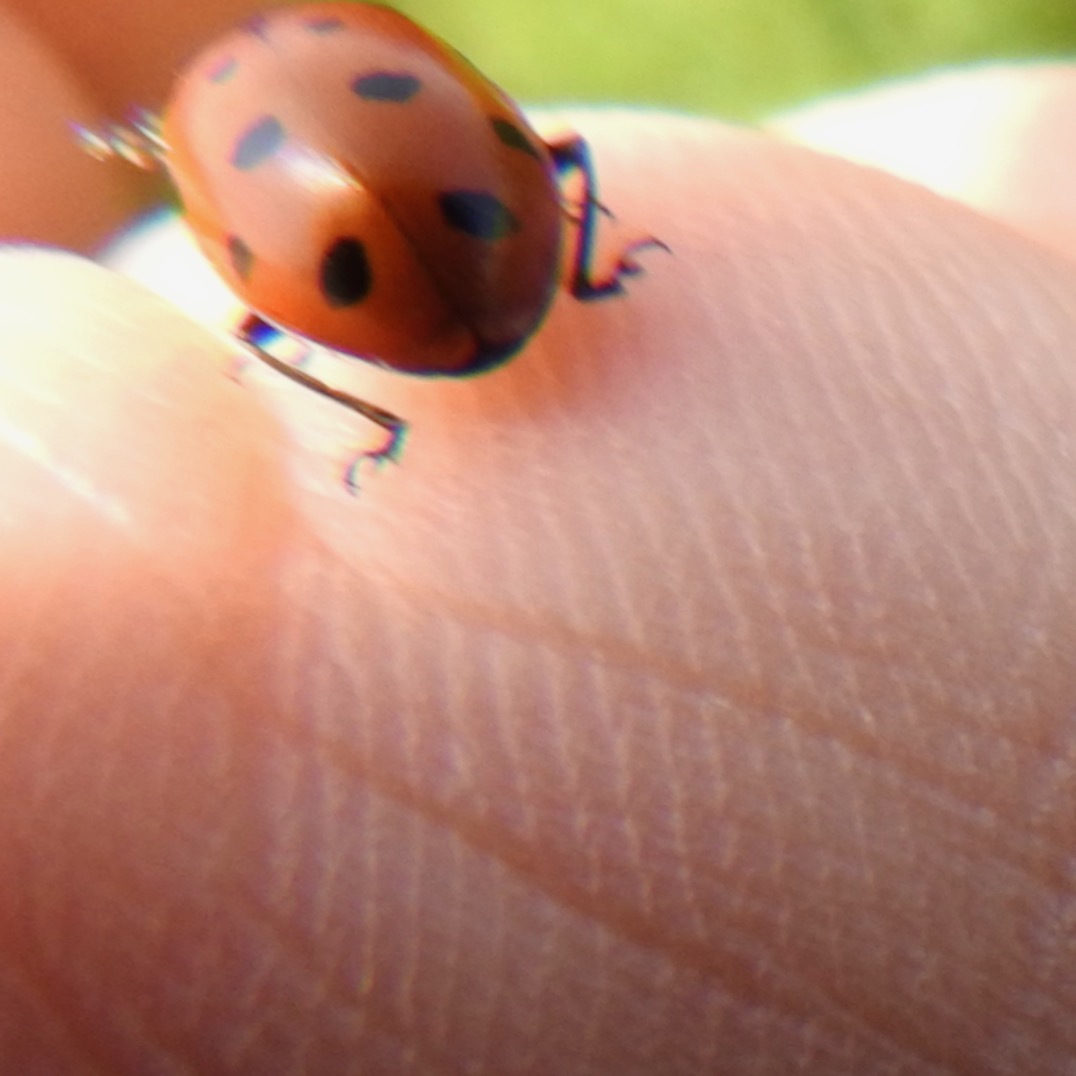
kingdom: Animalia
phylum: Arthropoda
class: Insecta
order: Coleoptera
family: Coccinellidae
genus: Hippodamia
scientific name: Hippodamia convergens
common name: Convergent lady beetle
